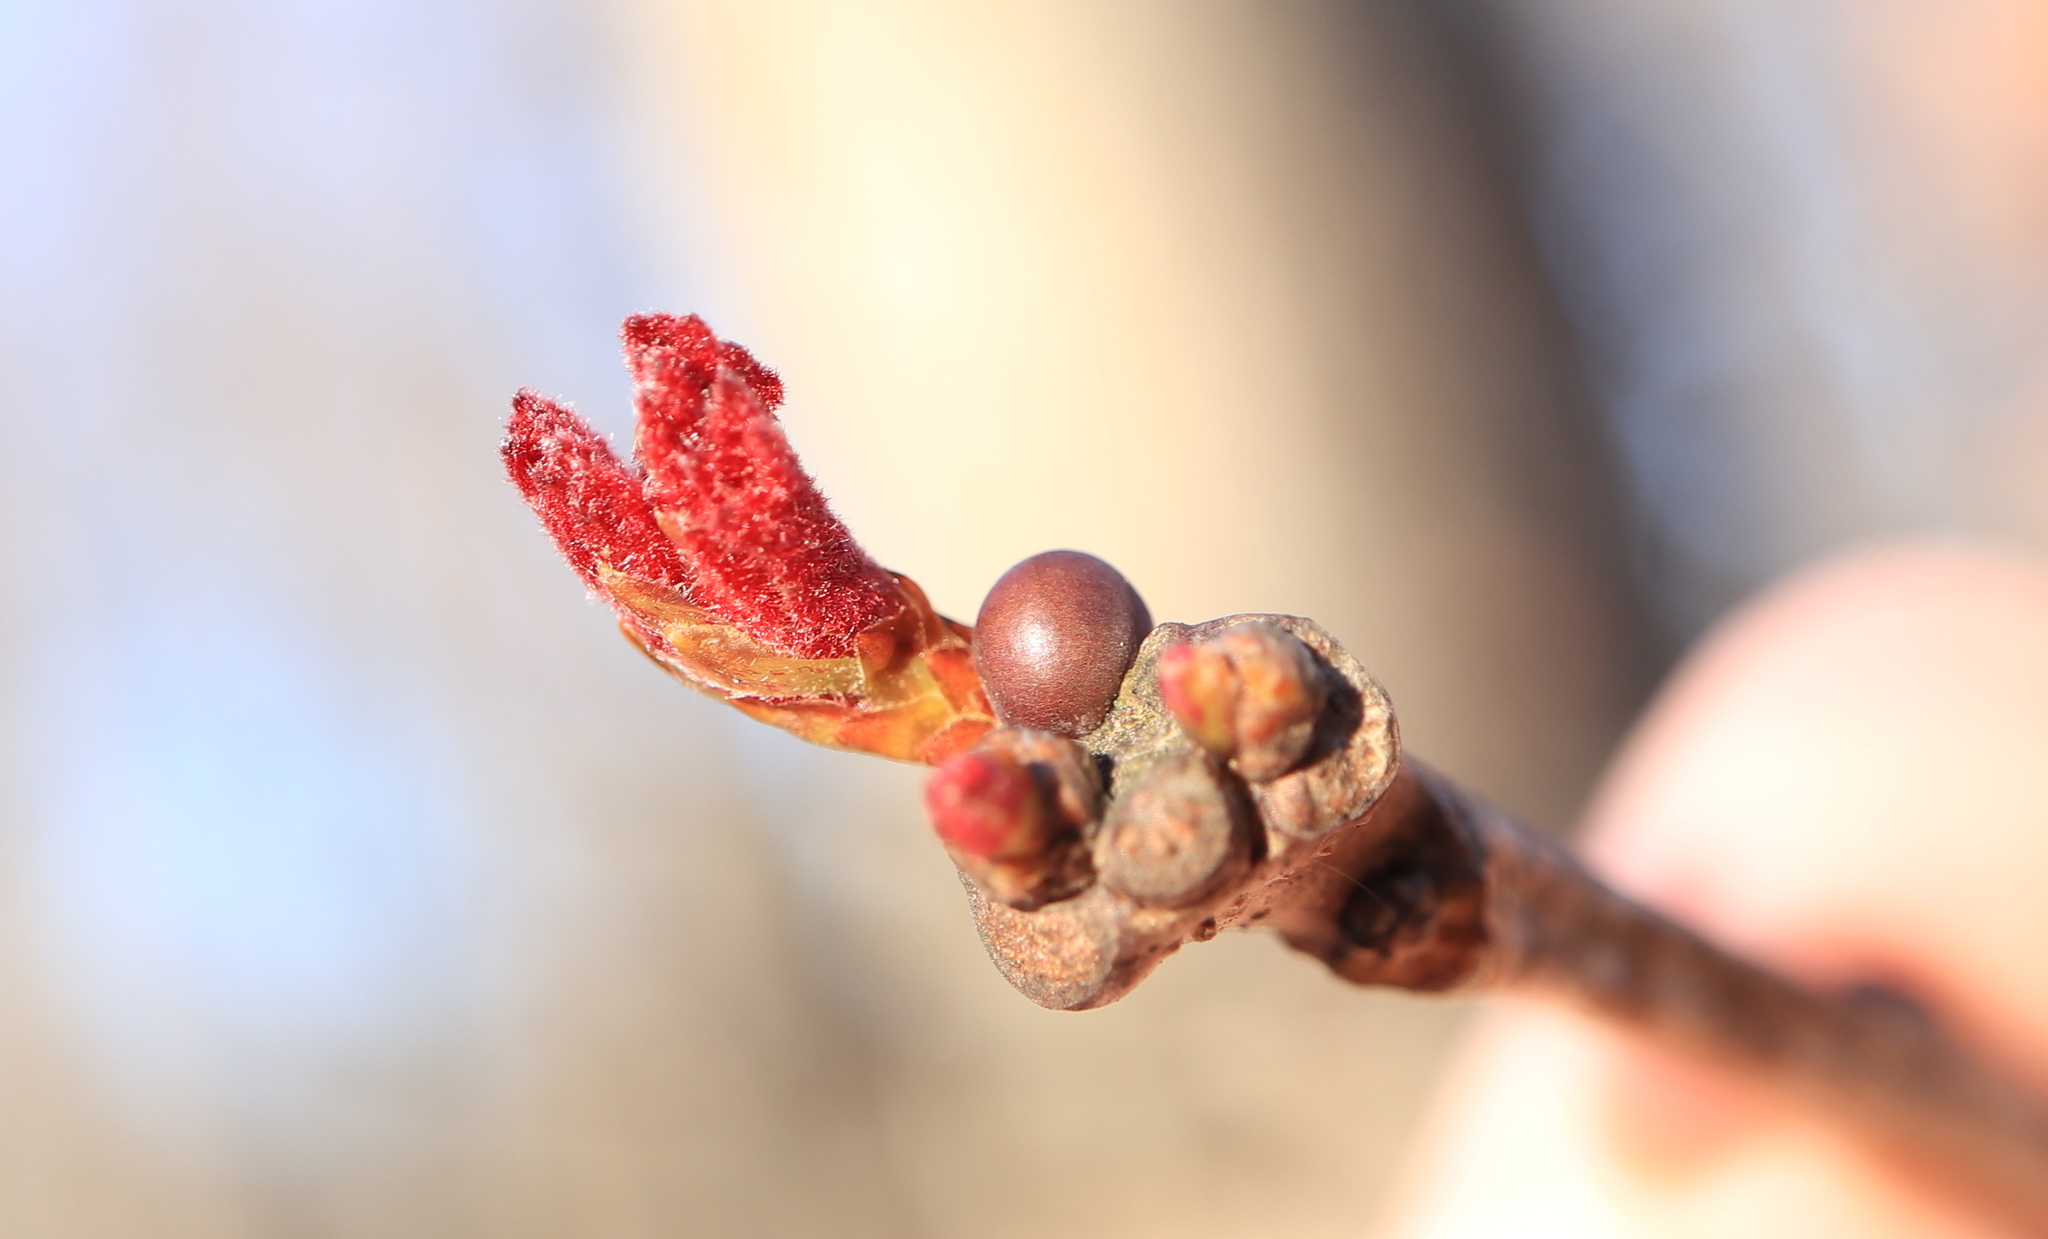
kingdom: Animalia
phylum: Arthropoda
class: Insecta
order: Hymenoptera
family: Cynipidae
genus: Neuroterus
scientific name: Neuroterus
